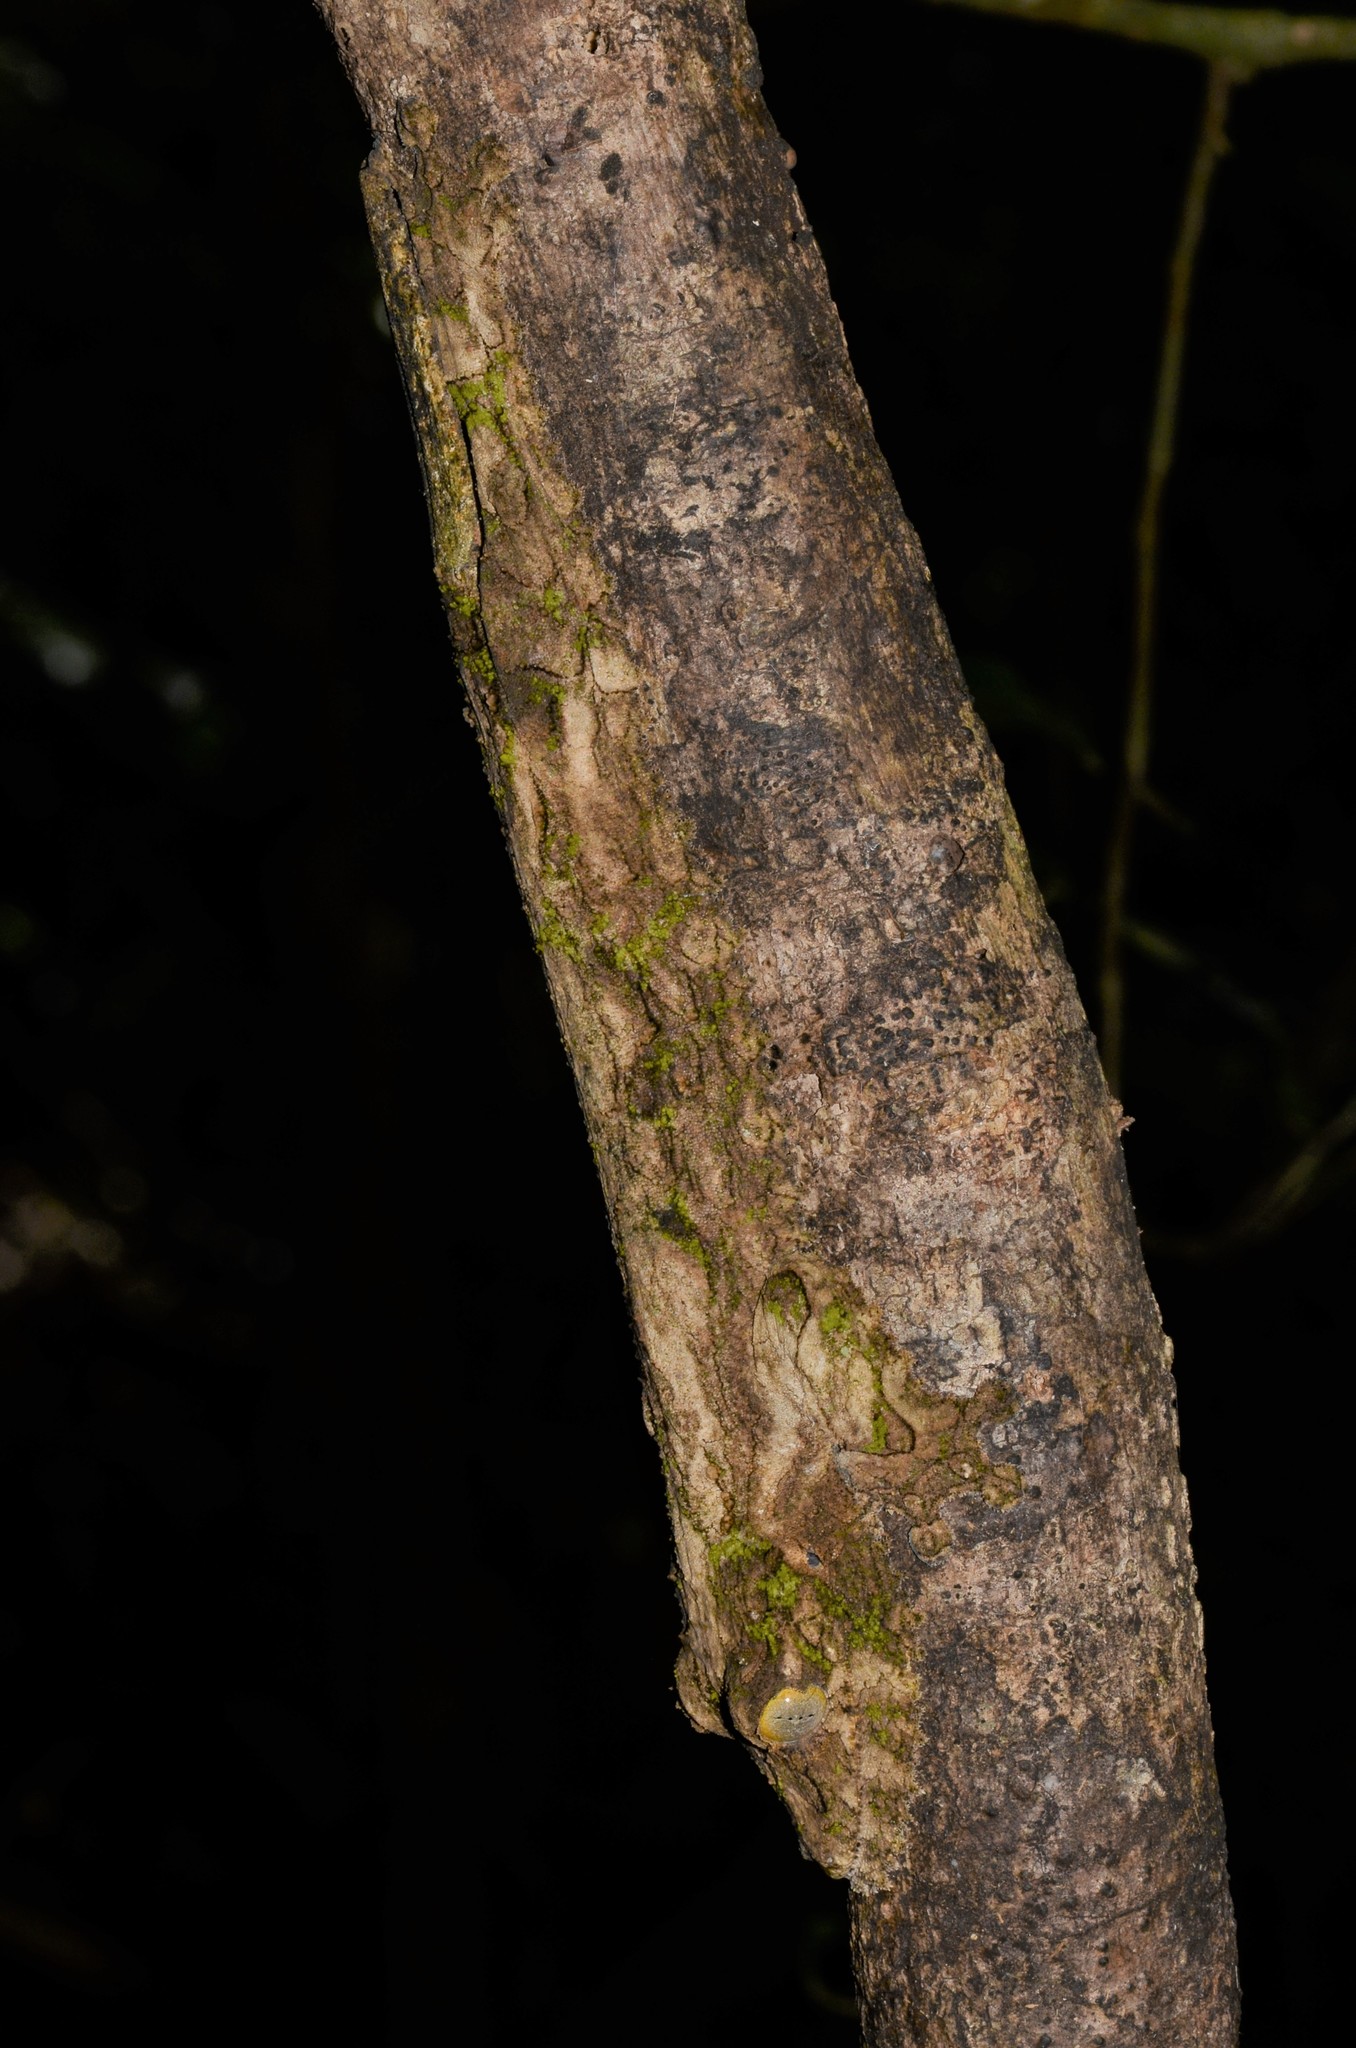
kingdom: Animalia
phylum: Chordata
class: Squamata
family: Gekkonidae
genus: Uroplatus
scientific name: Uroplatus sikorae
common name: Southern flat-tail gecko
